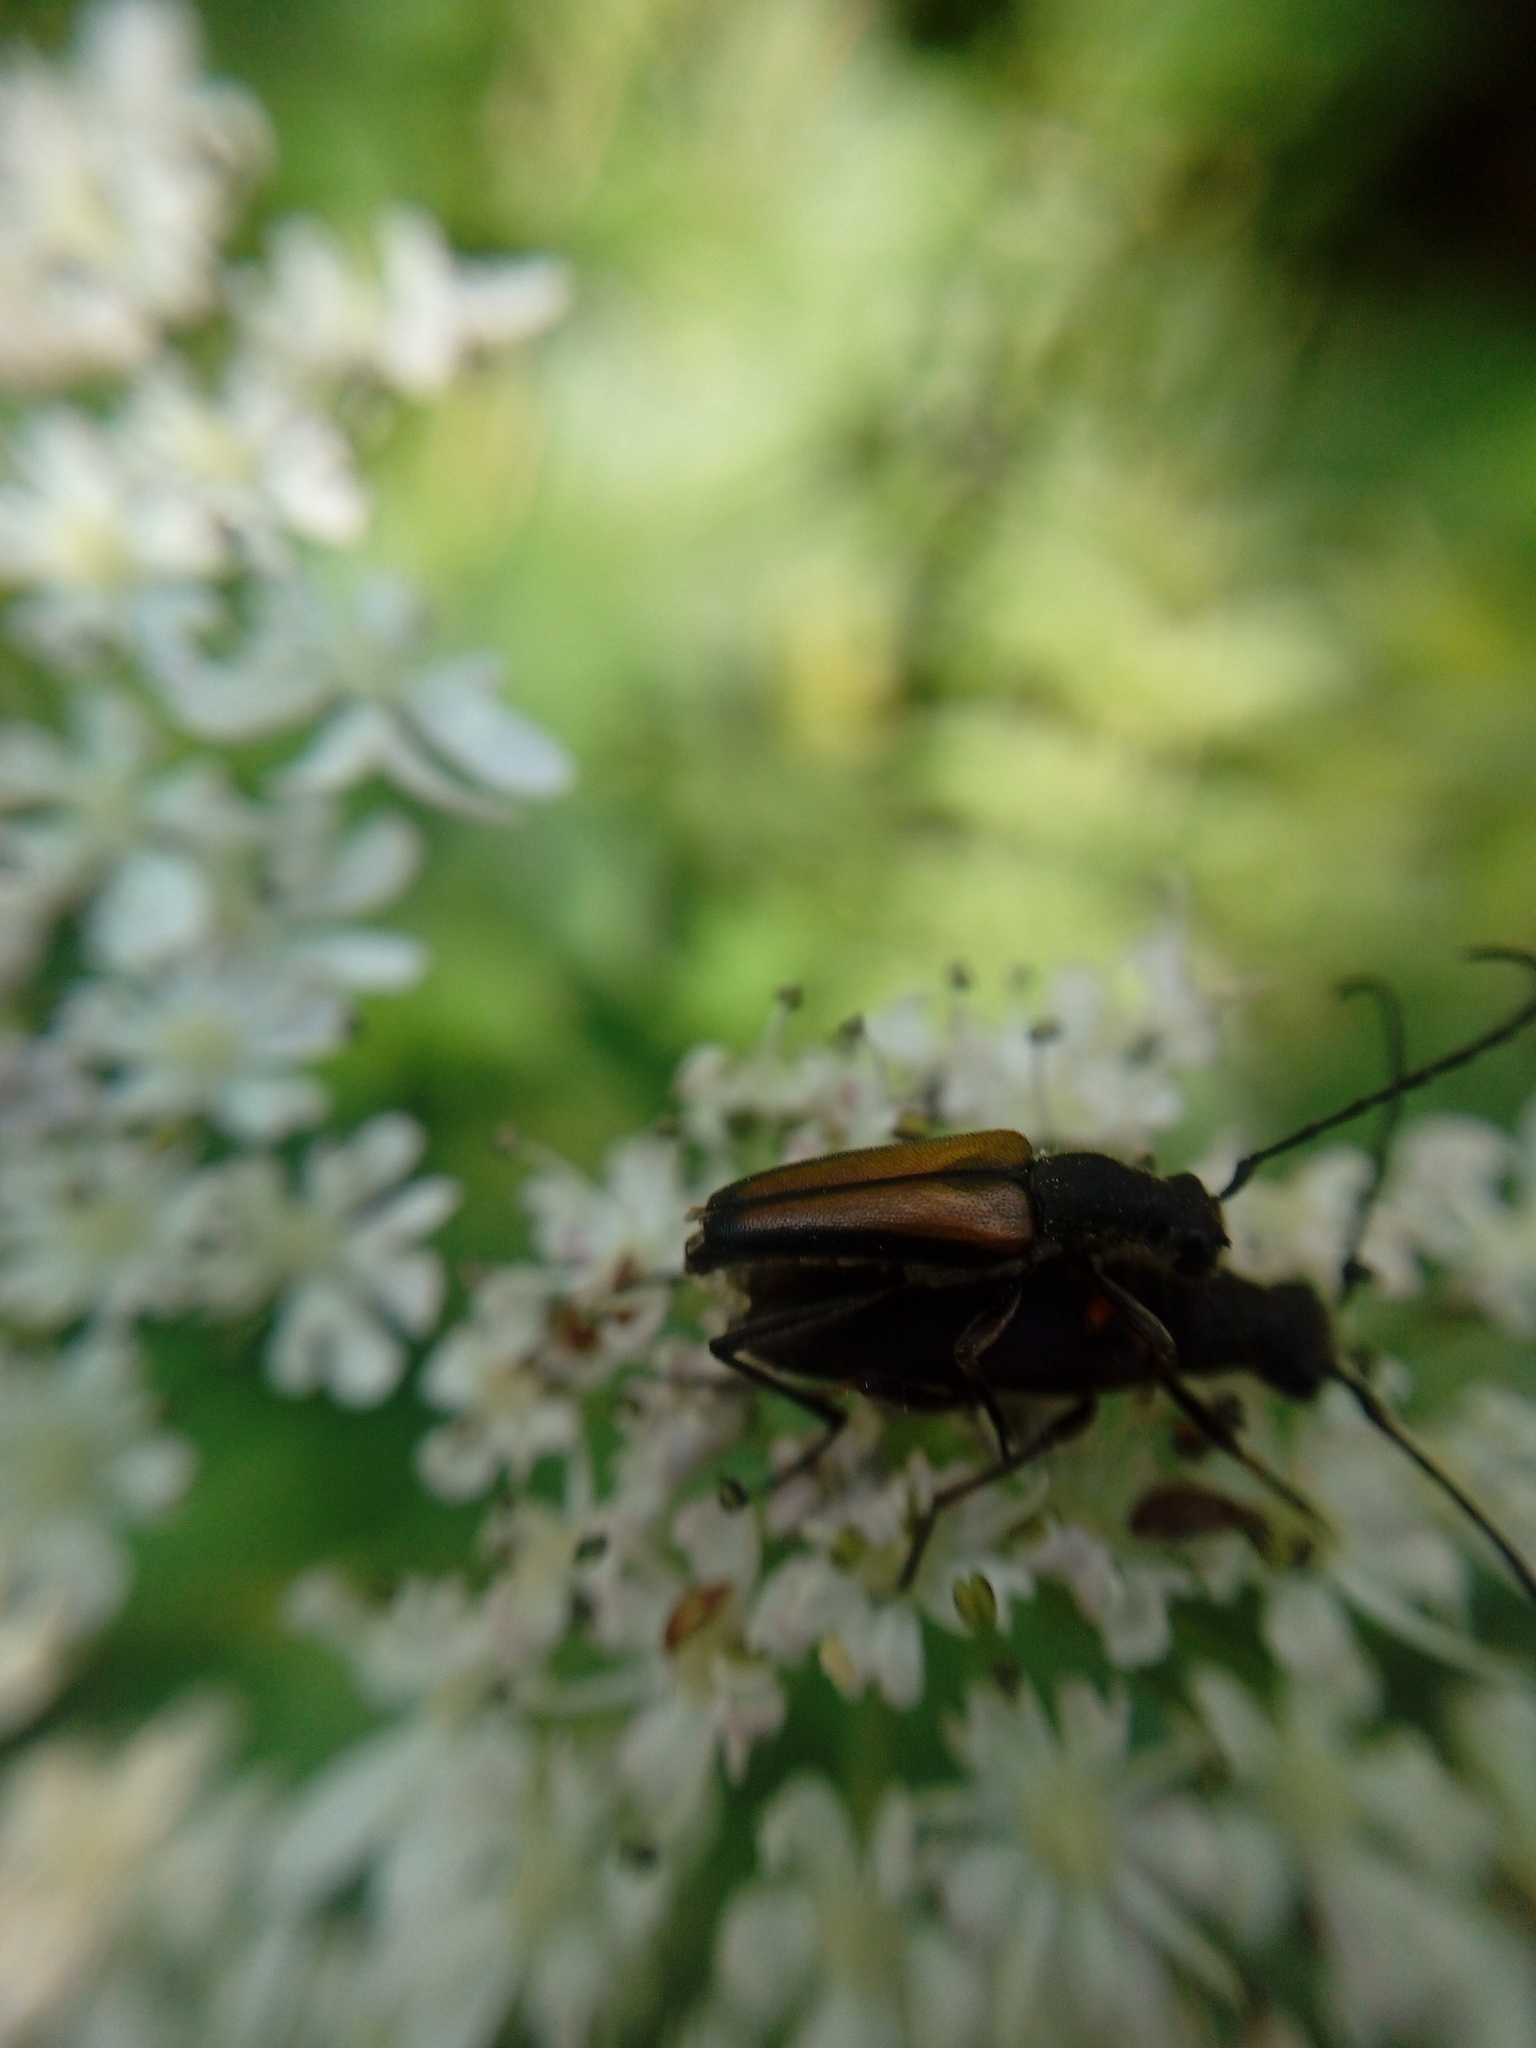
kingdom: Animalia
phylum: Arthropoda
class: Insecta
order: Coleoptera
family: Cerambycidae
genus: Anastrangalia
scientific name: Anastrangalia dubia
